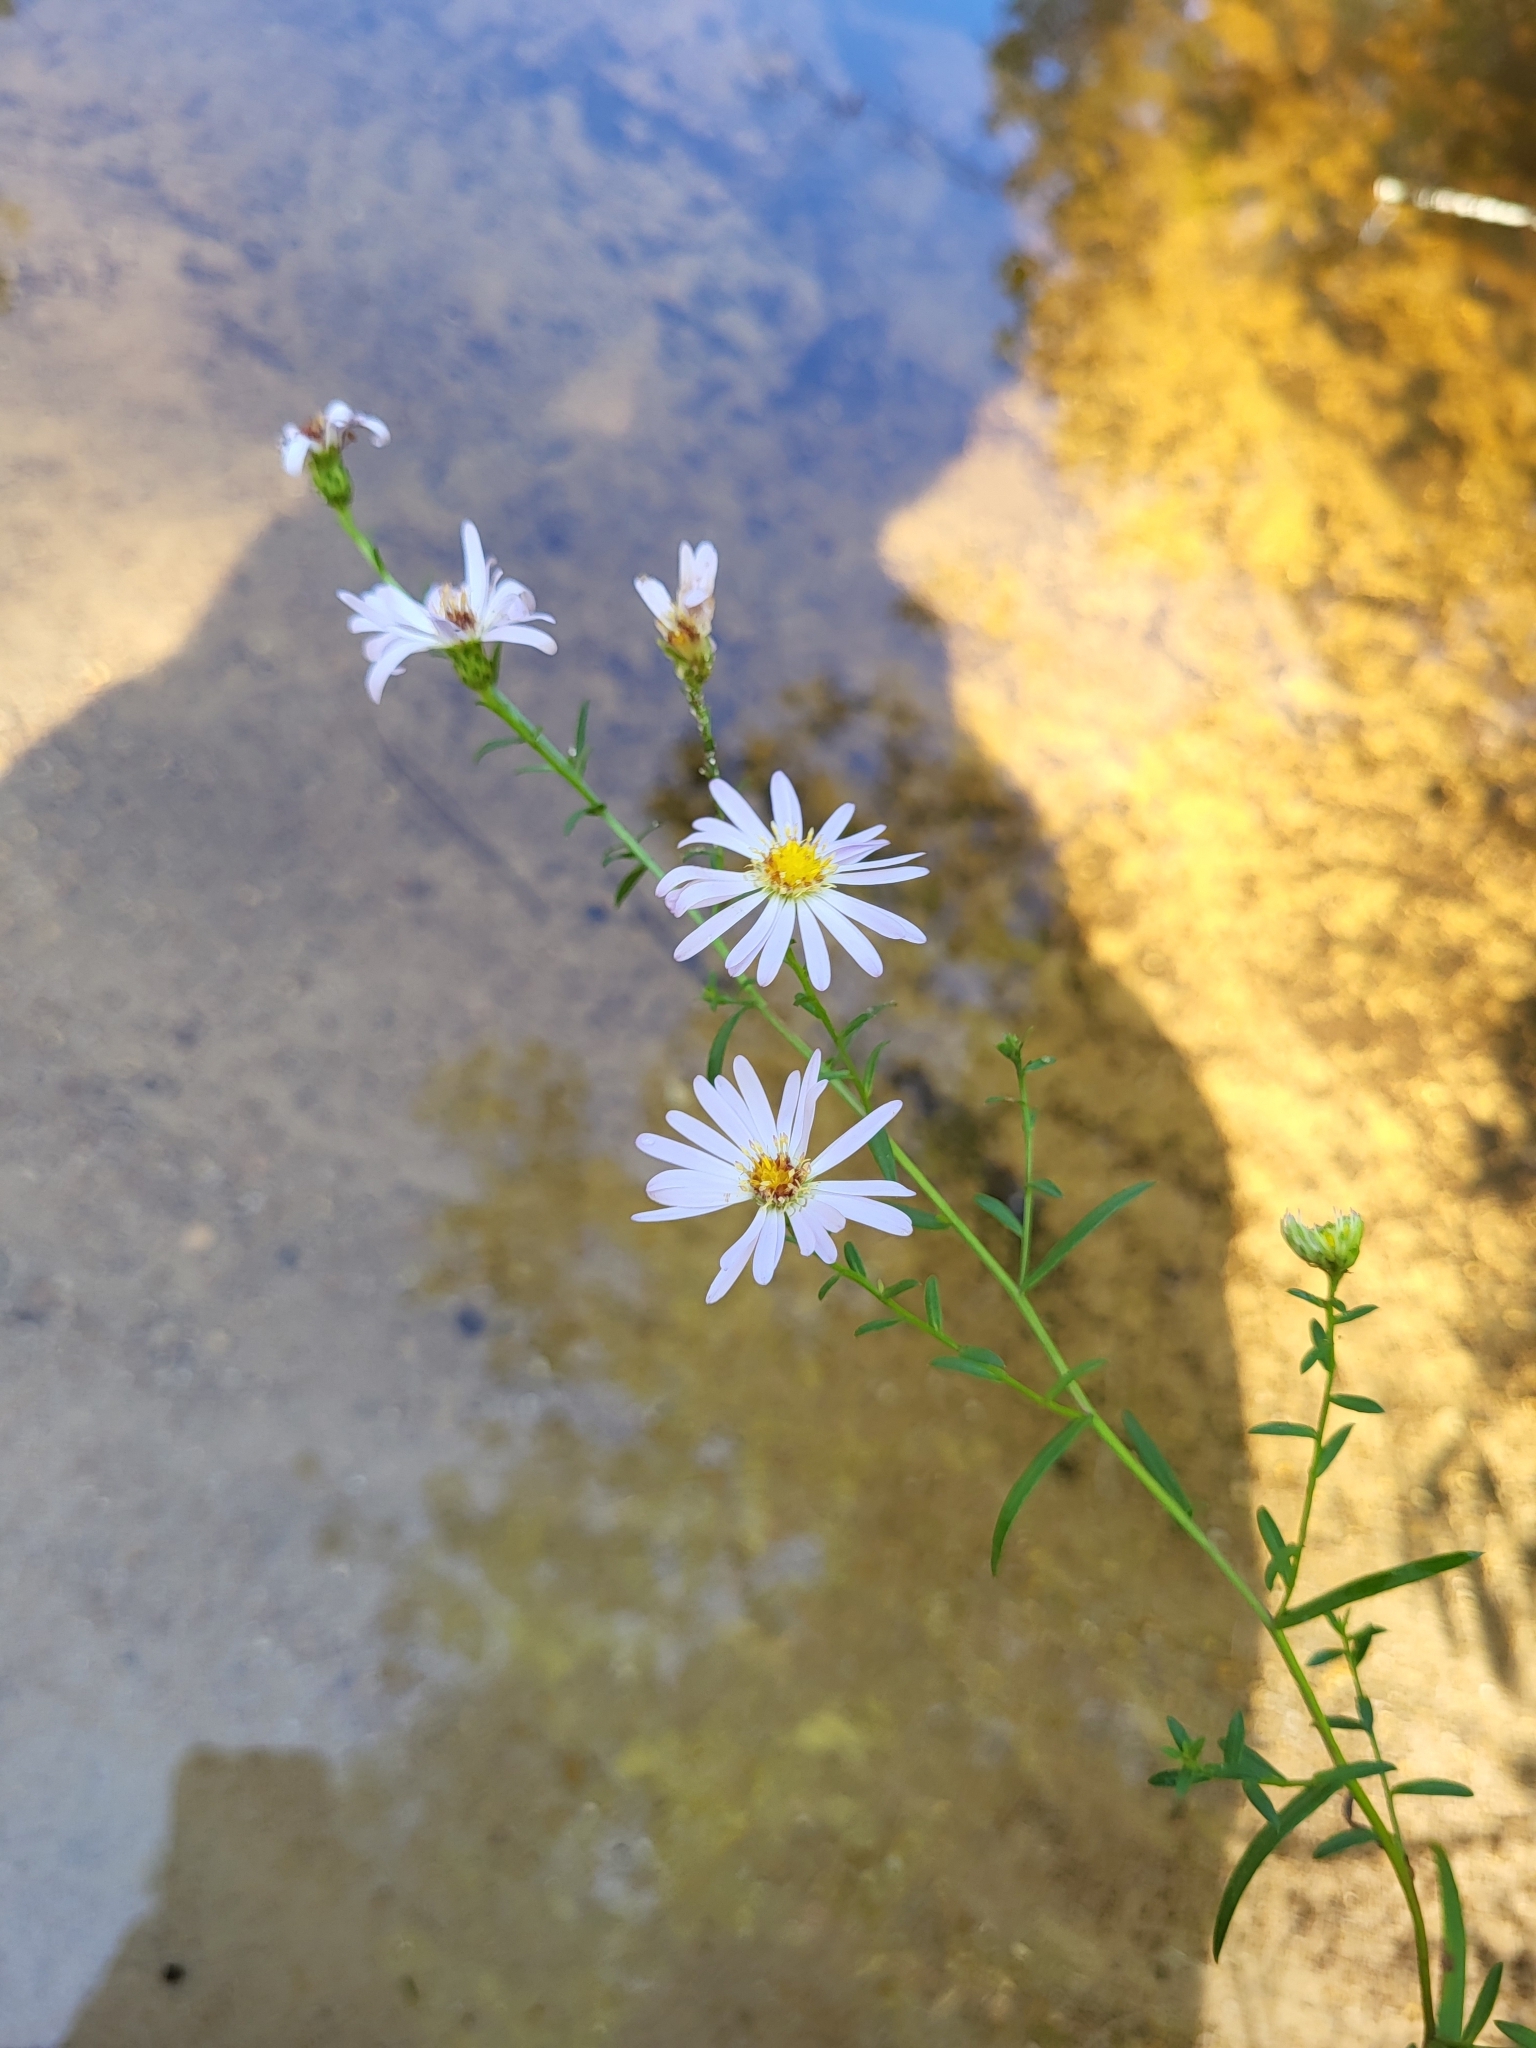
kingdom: Plantae
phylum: Tracheophyta
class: Magnoliopsida
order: Asterales
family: Asteraceae
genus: Symphyotrichum
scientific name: Symphyotrichum dumosum
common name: Bushy aster
